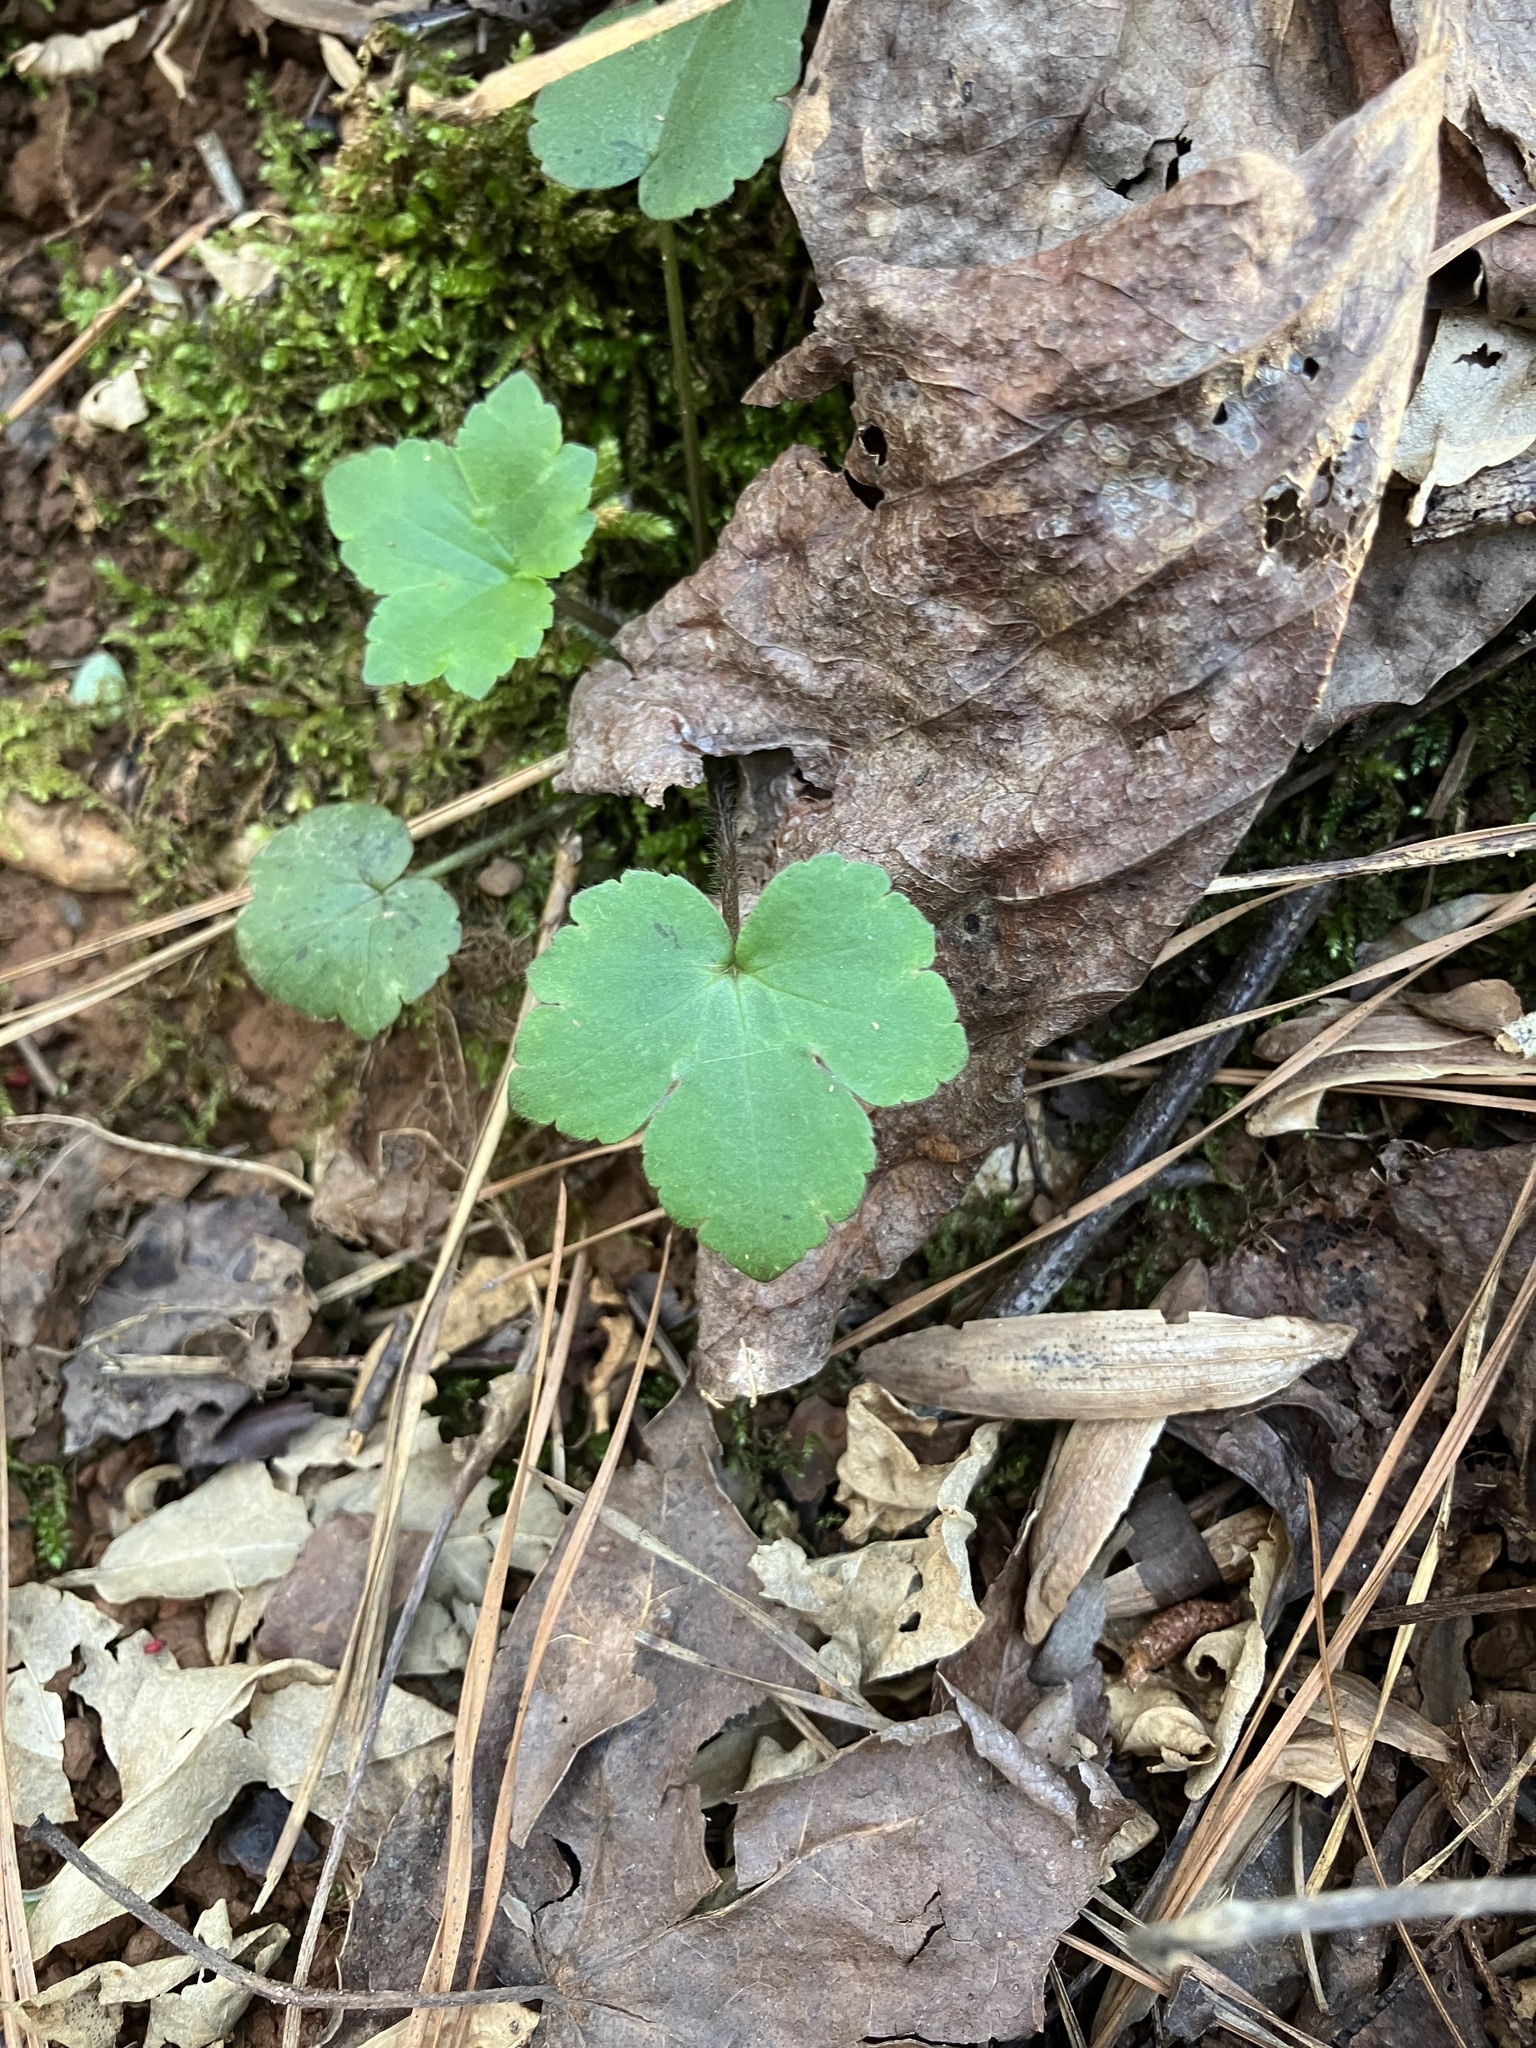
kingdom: Plantae
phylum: Tracheophyta
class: Magnoliopsida
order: Ranunculales
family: Ranunculaceae
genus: Ranunculus
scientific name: Ranunculus recurvatus
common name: Blisterwort
